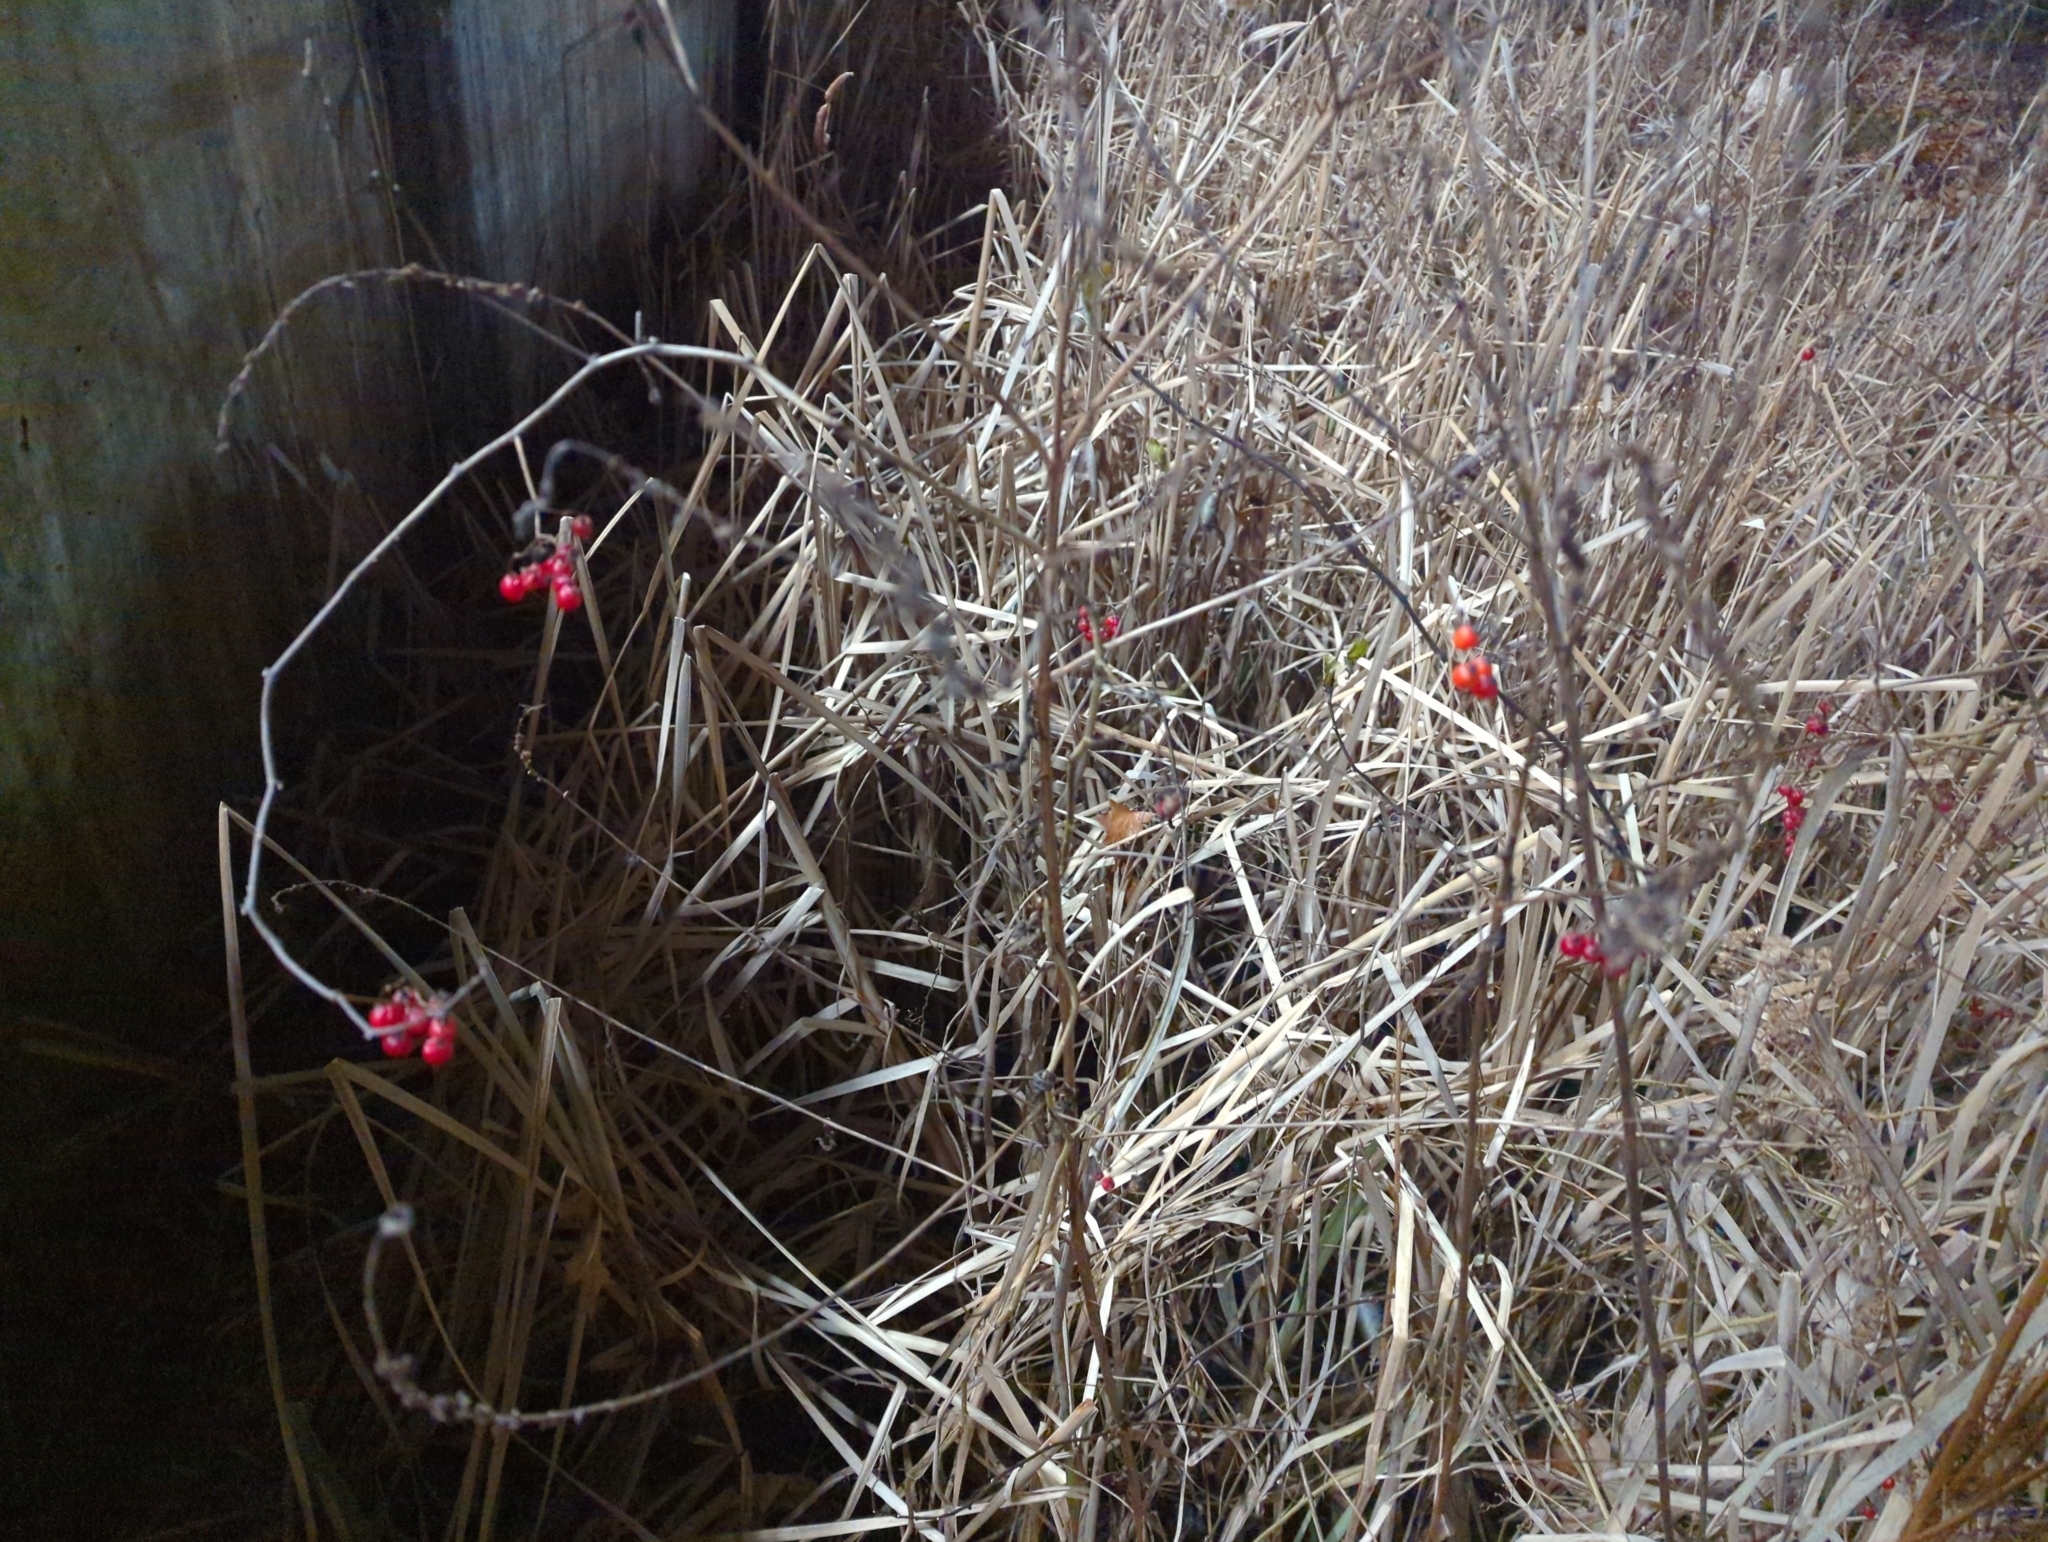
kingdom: Plantae
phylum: Tracheophyta
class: Magnoliopsida
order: Solanales
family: Solanaceae
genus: Solanum
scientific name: Solanum dulcamara
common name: Climbing nightshade
